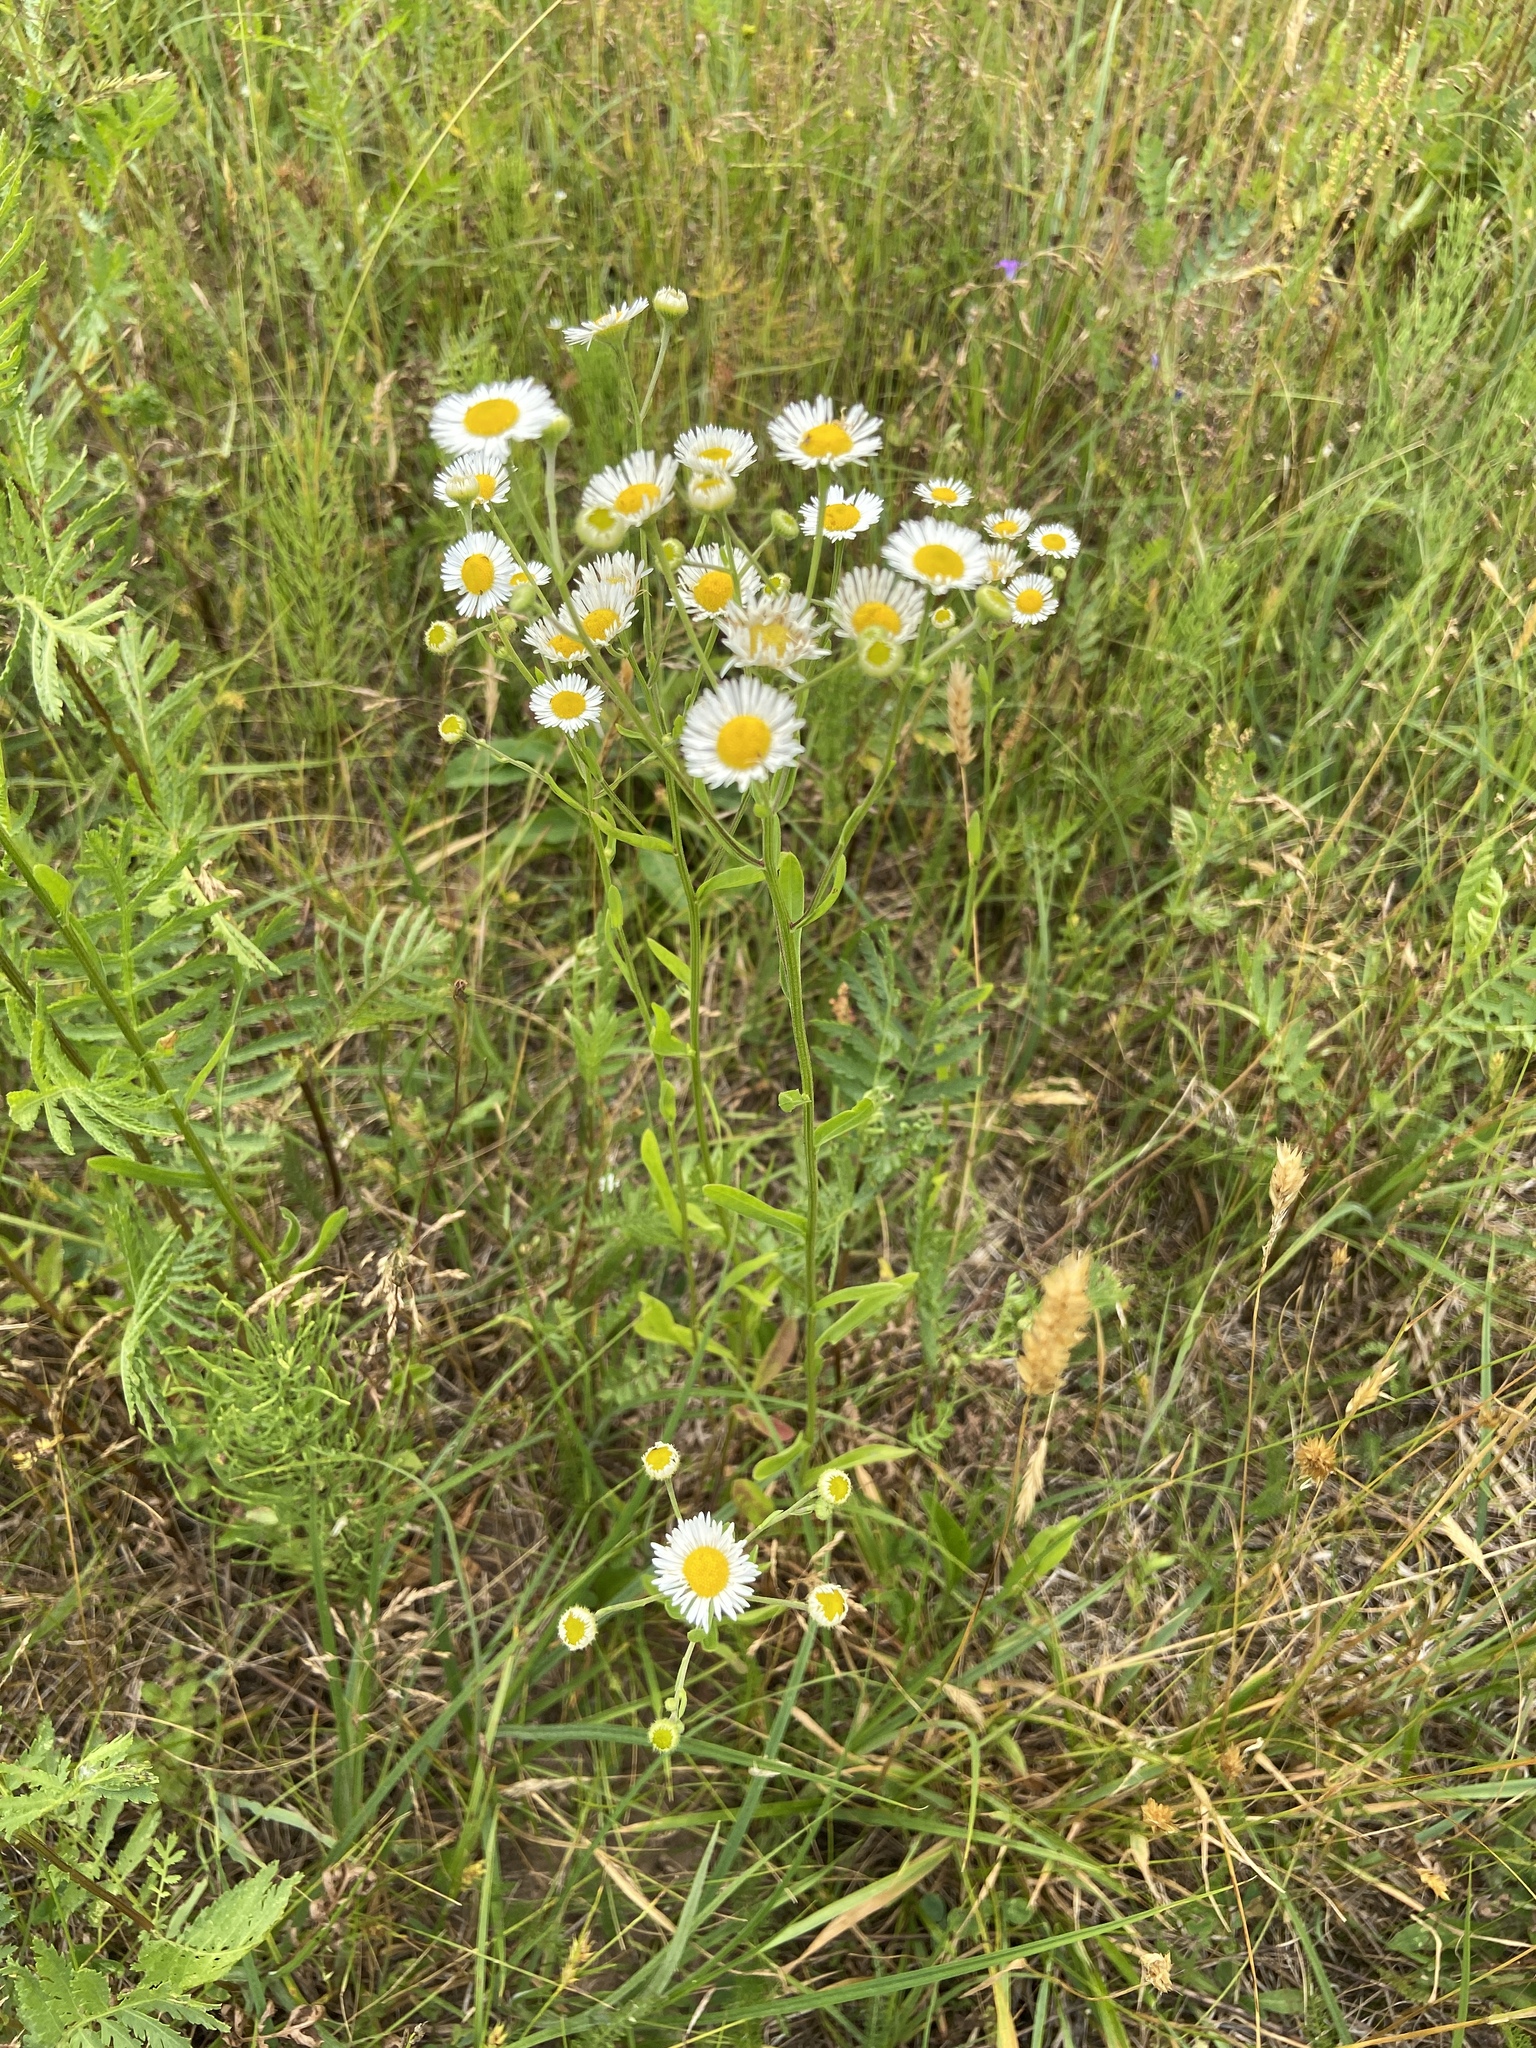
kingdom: Plantae
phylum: Tracheophyta
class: Magnoliopsida
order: Asterales
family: Asteraceae
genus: Erigeron
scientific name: Erigeron strigosus
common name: Common eastern fleabane
